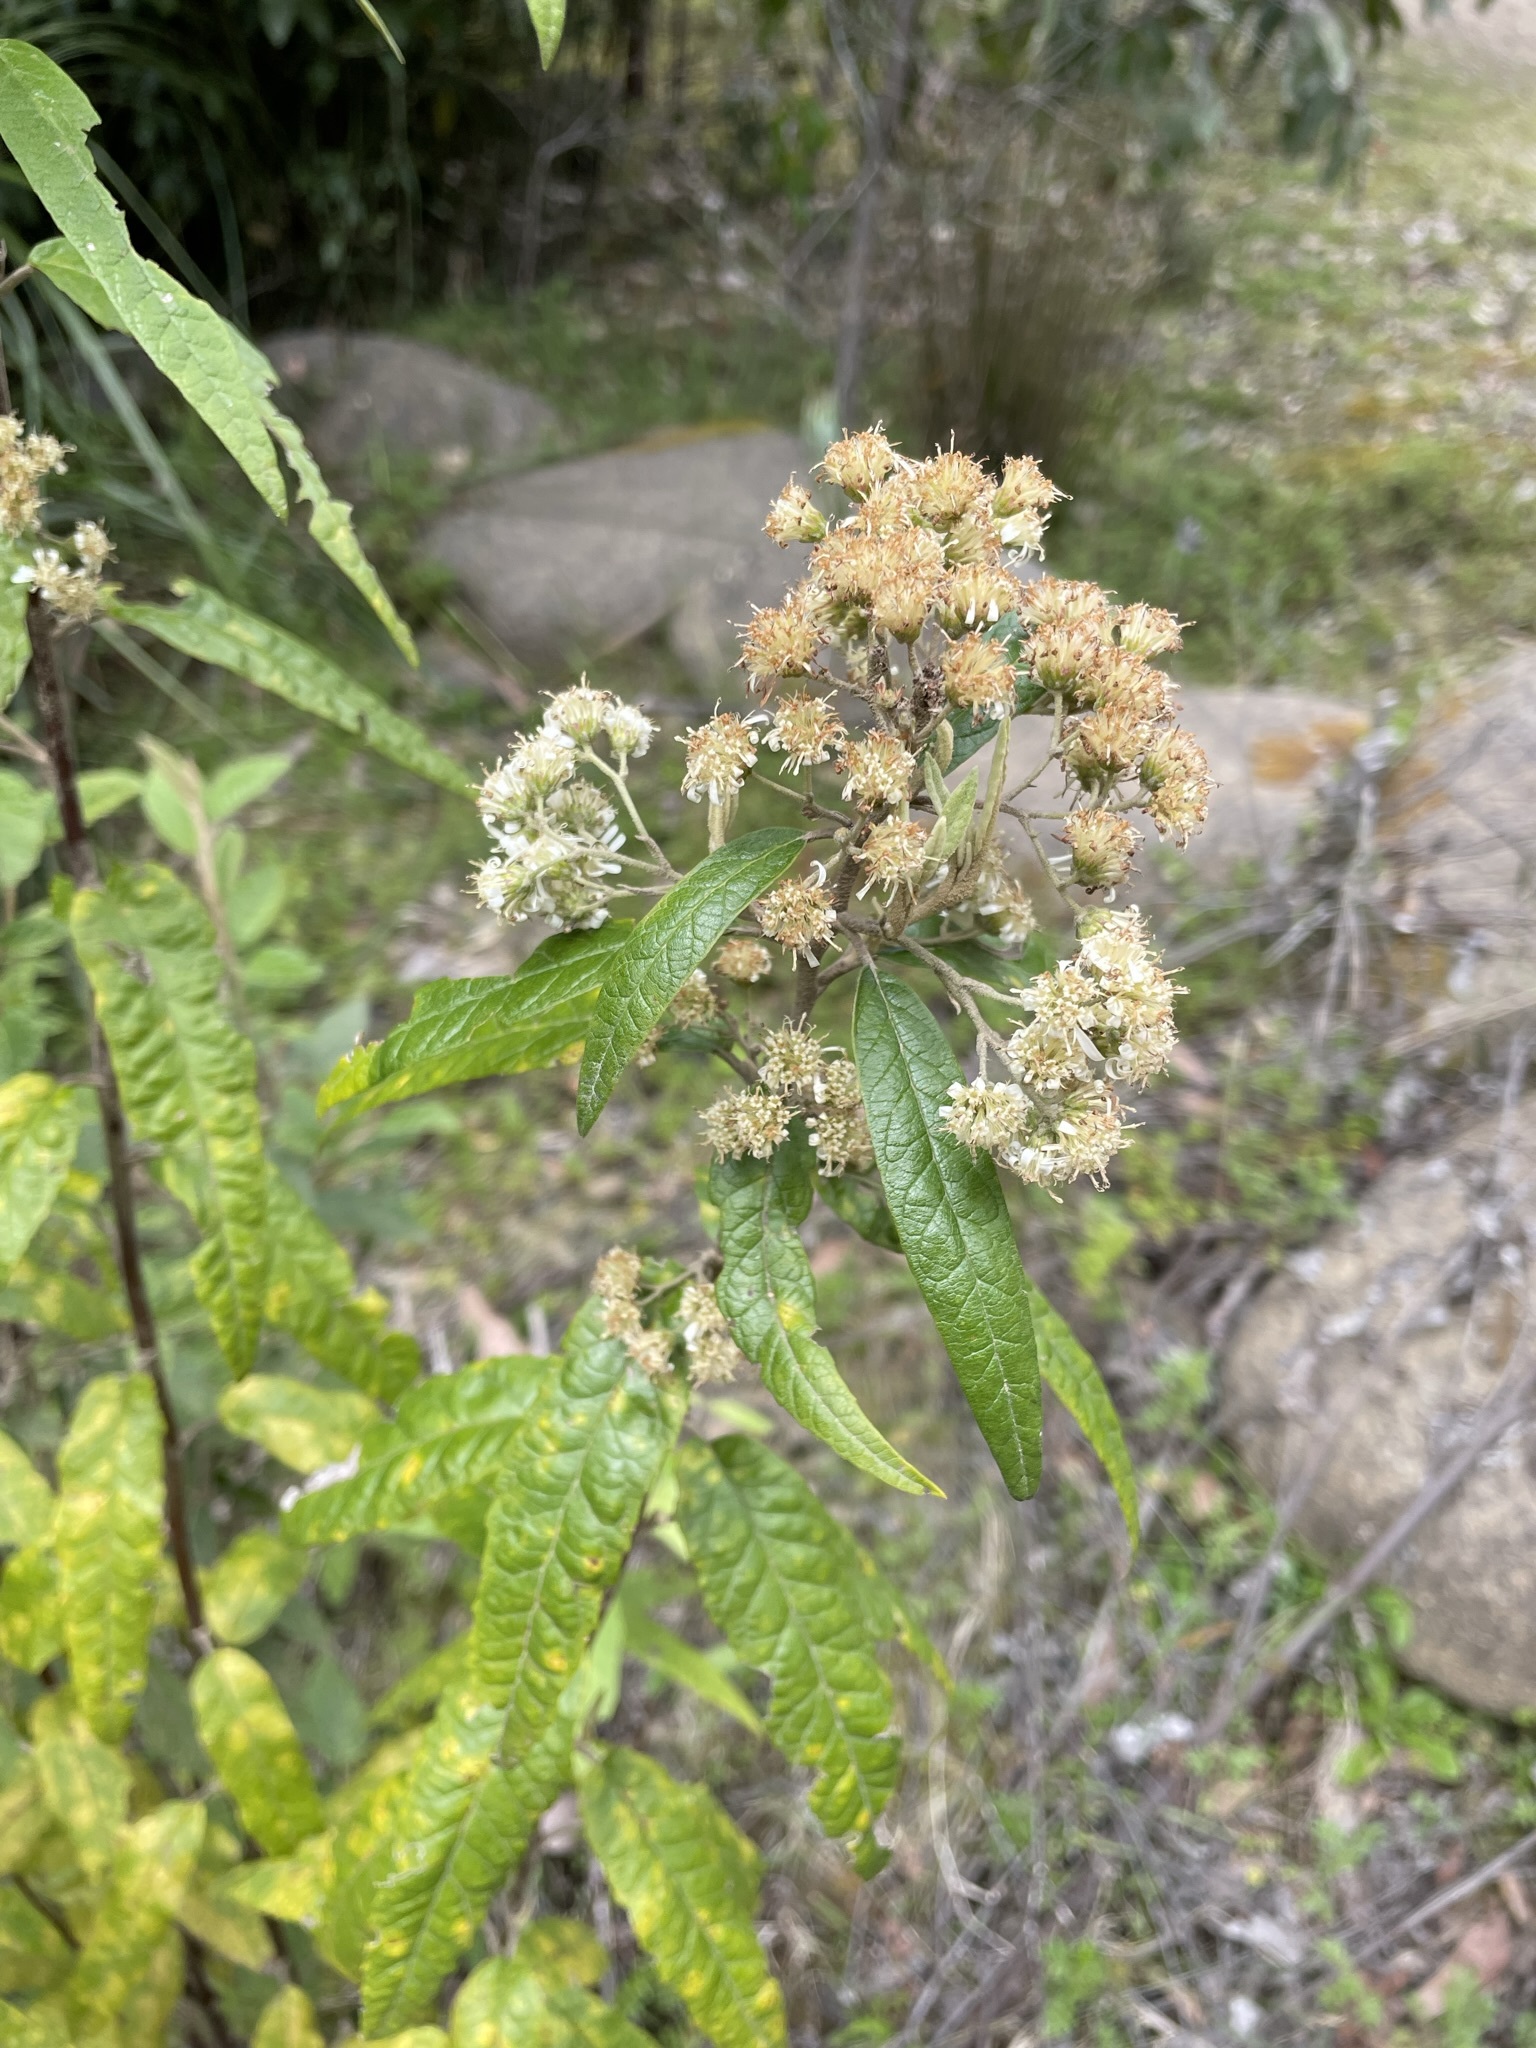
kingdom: Plantae
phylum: Tracheophyta
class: Magnoliopsida
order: Asterales
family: Asteraceae
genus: Olearia
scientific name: Olearia lirata
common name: Dusty daisybush
